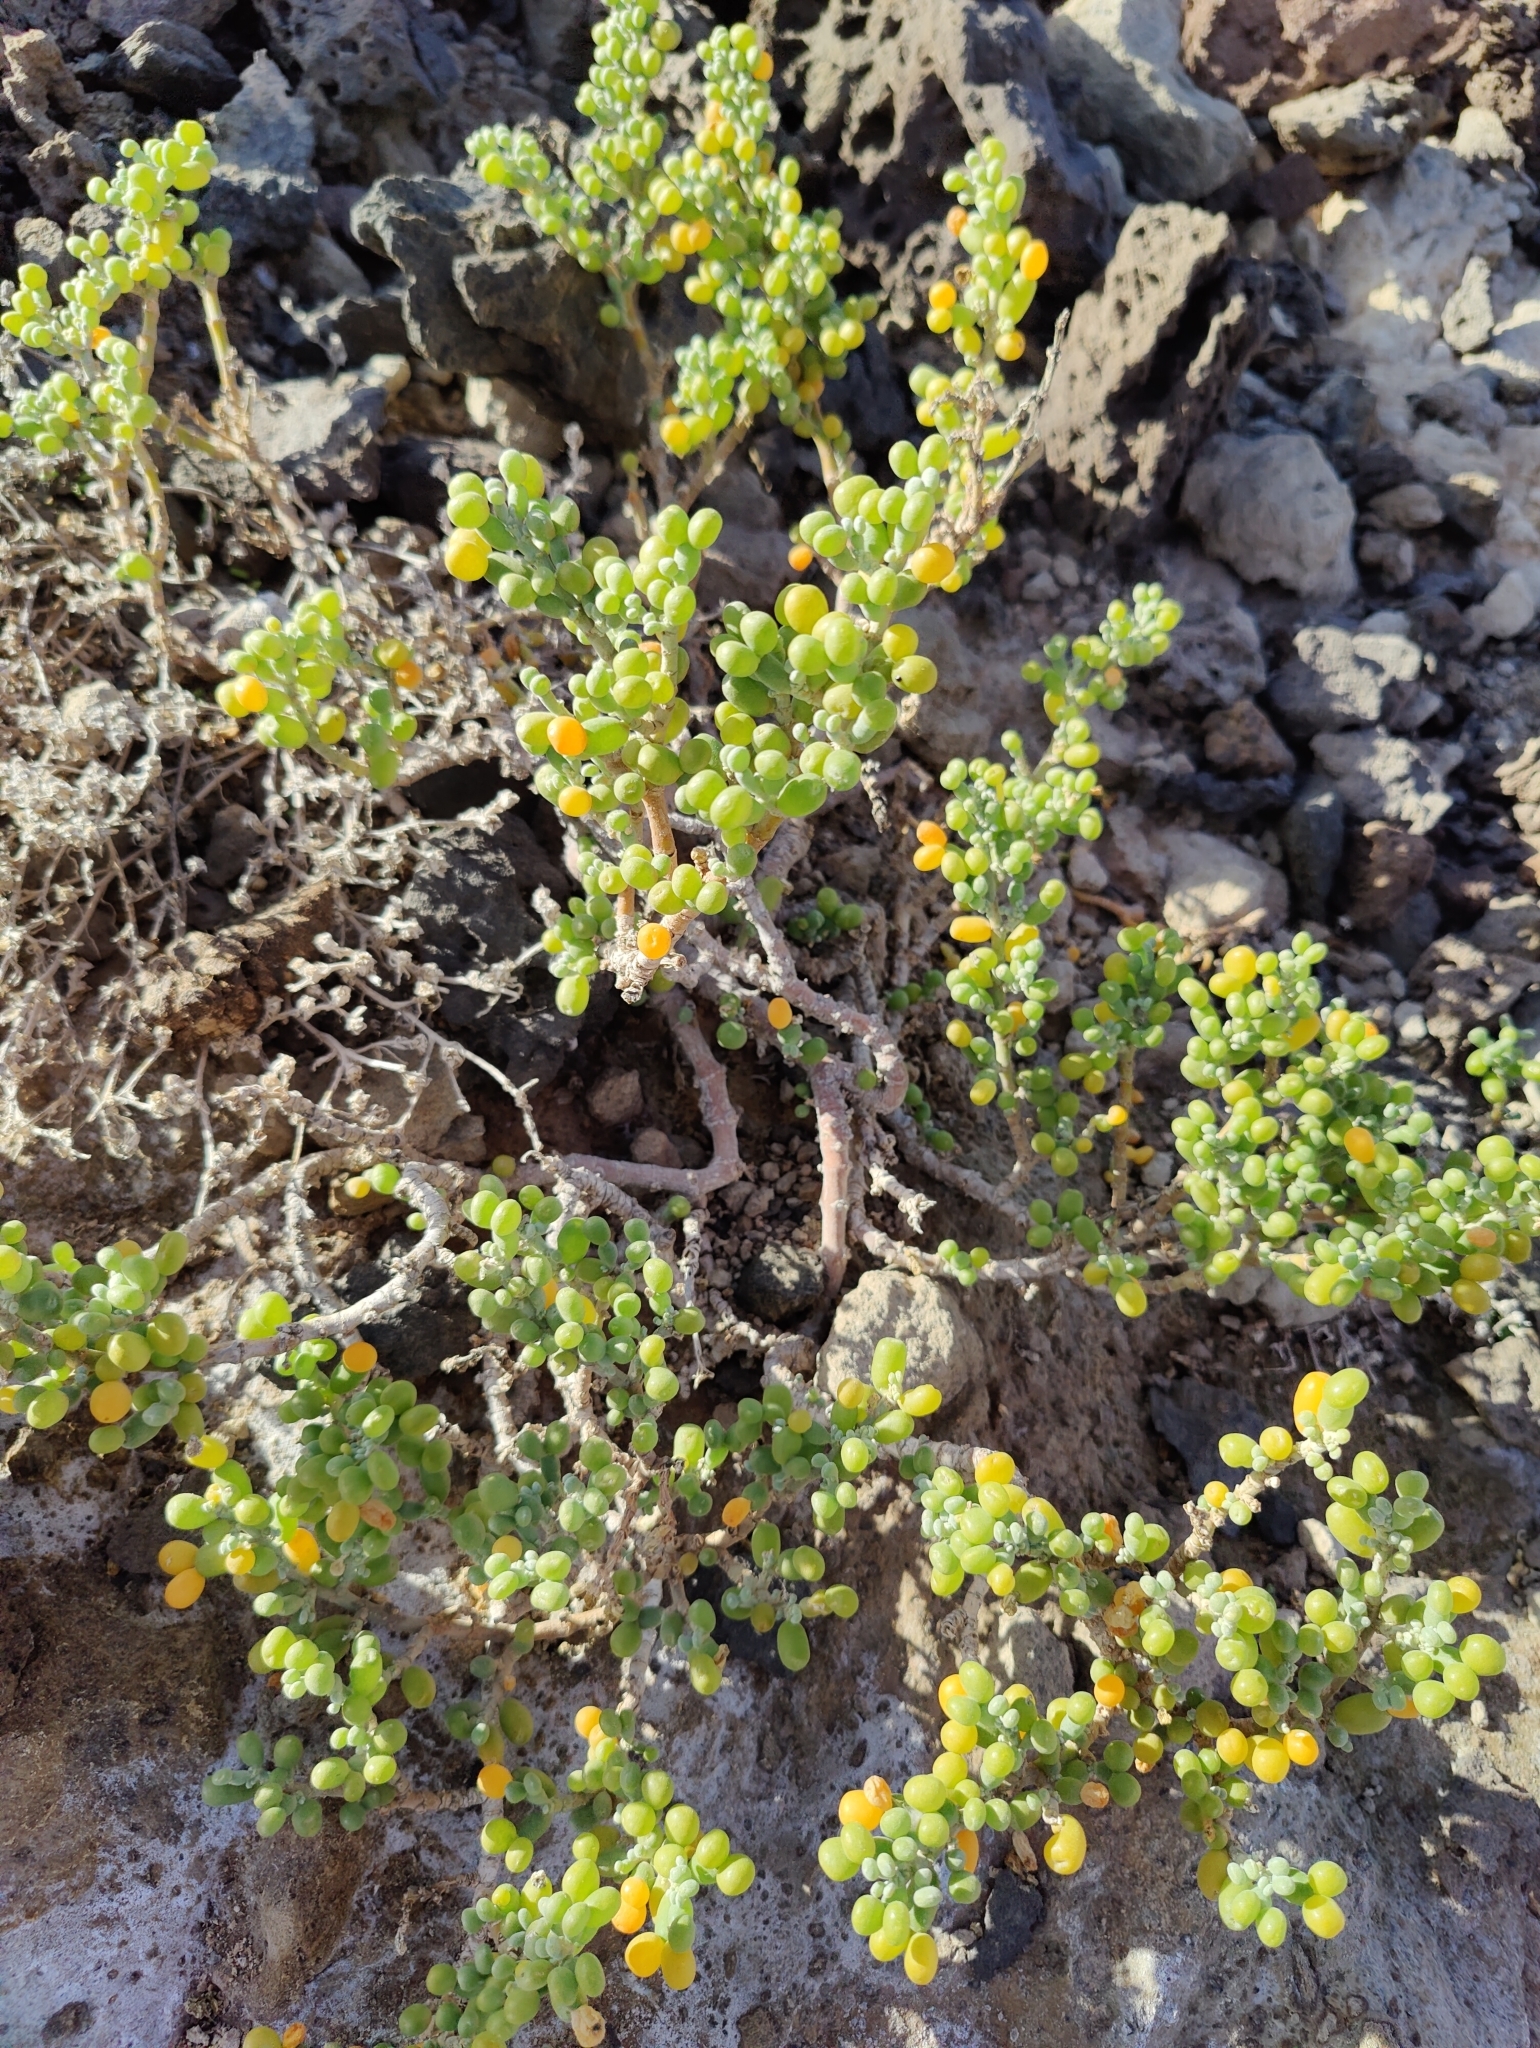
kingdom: Plantae
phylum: Tracheophyta
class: Magnoliopsida
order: Zygophyllales
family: Zygophyllaceae
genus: Tetraena
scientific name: Tetraena fontanesii
